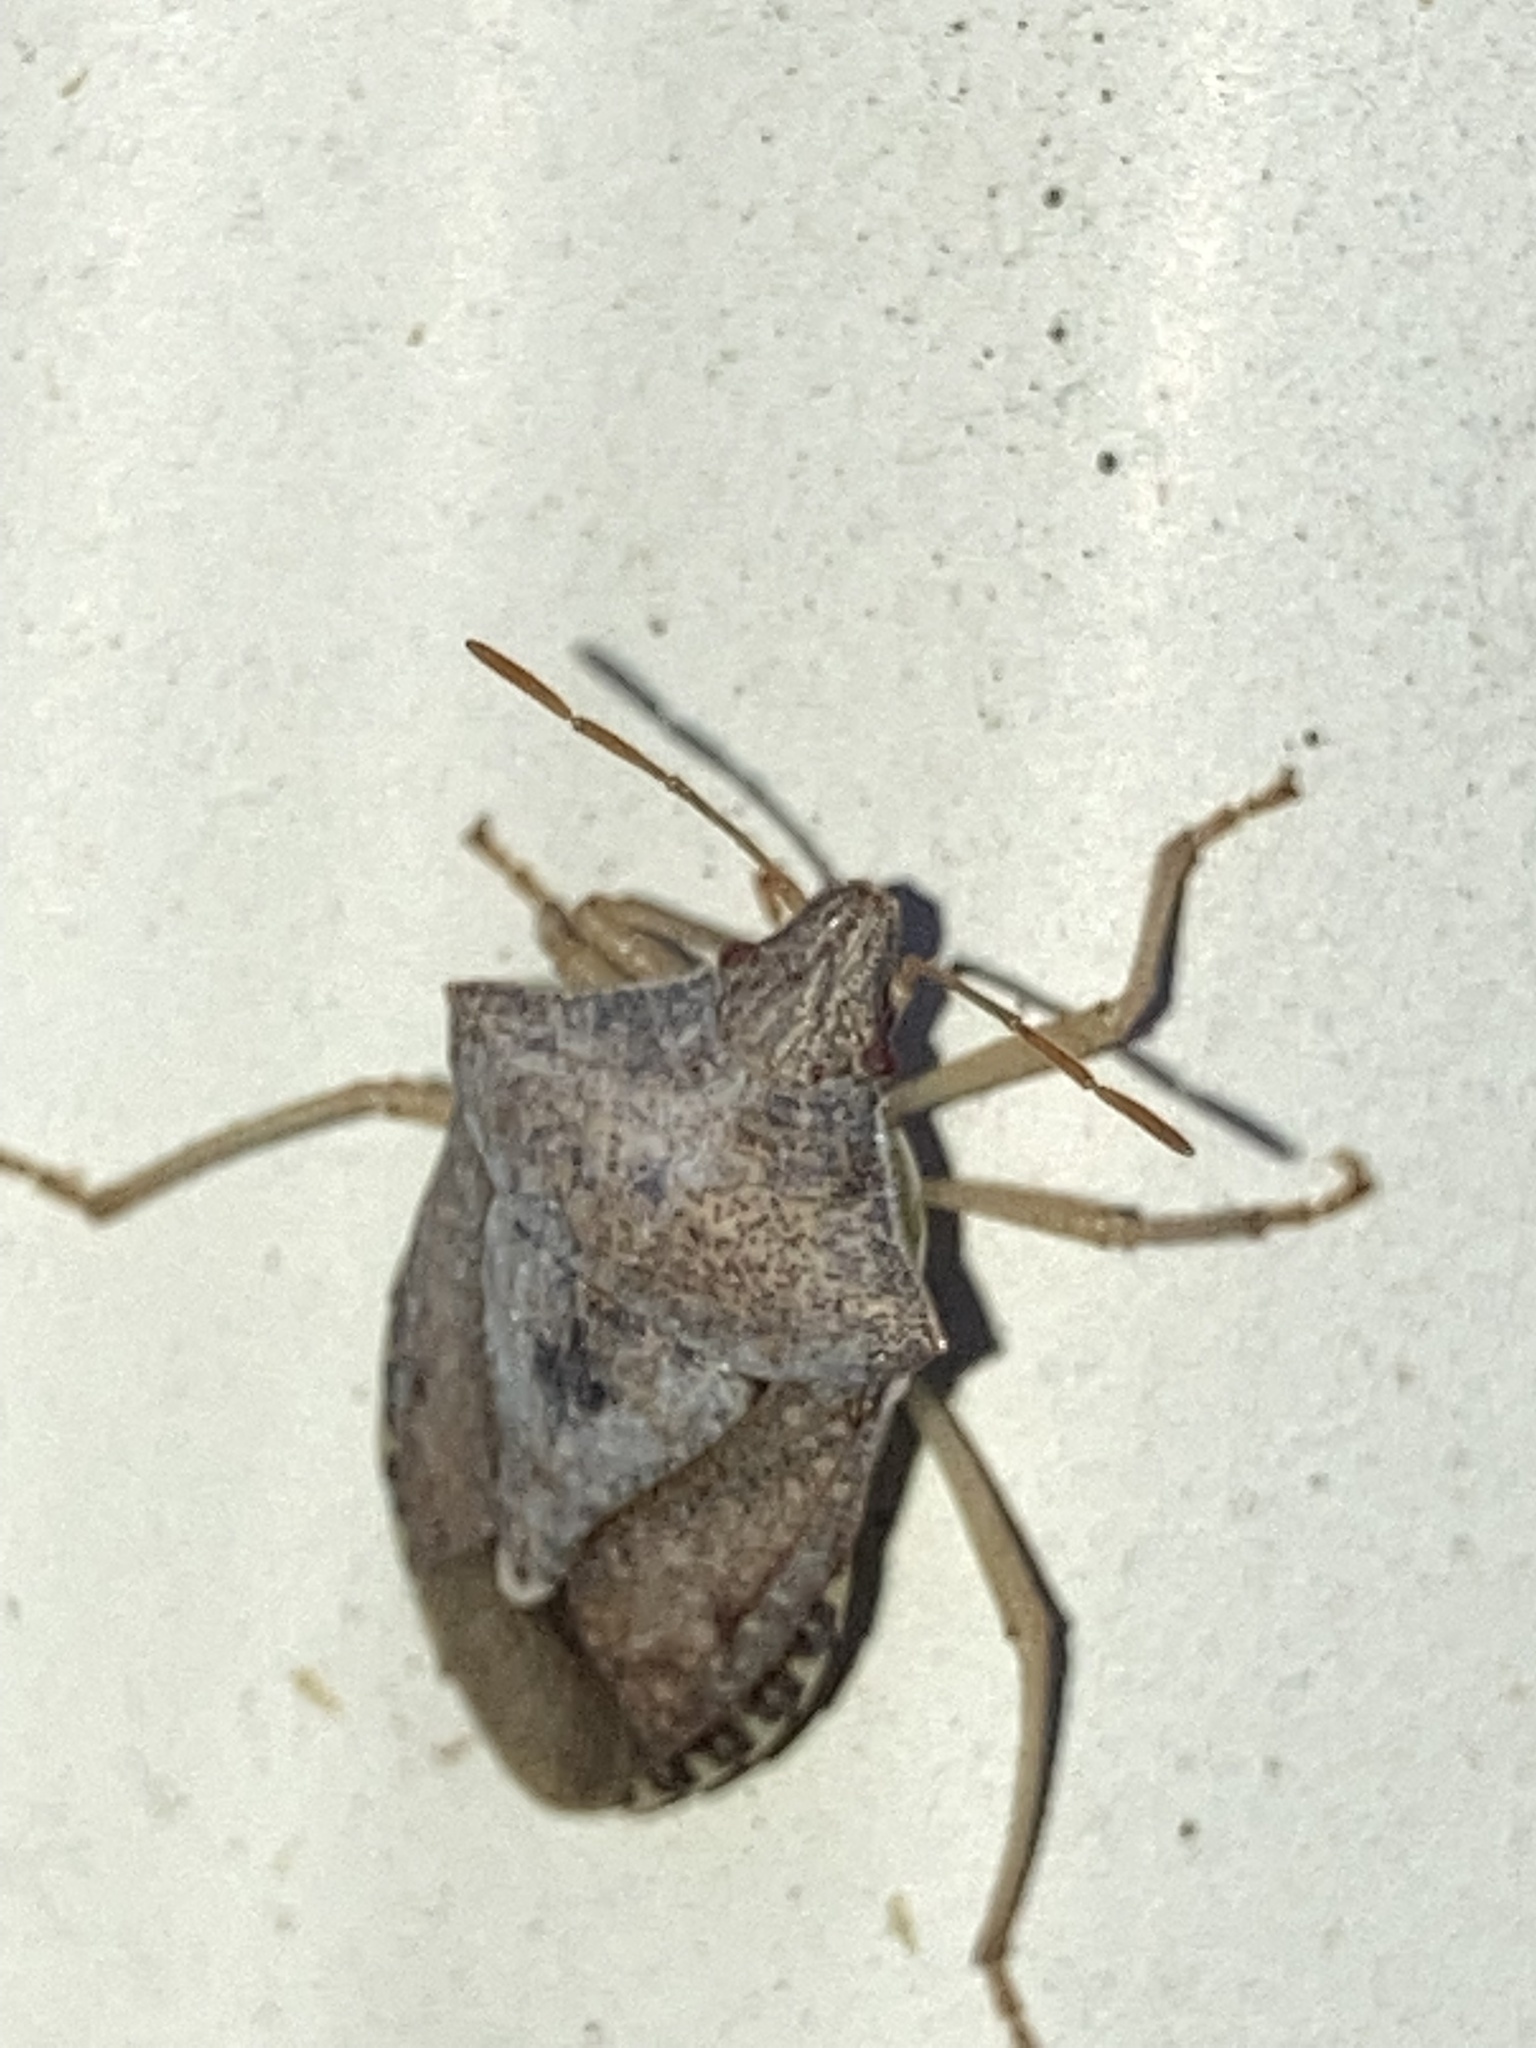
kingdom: Animalia
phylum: Arthropoda
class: Insecta
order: Hemiptera
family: Pentatomidae
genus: Euschistus
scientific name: Euschistus servus
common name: Brown stink bug
